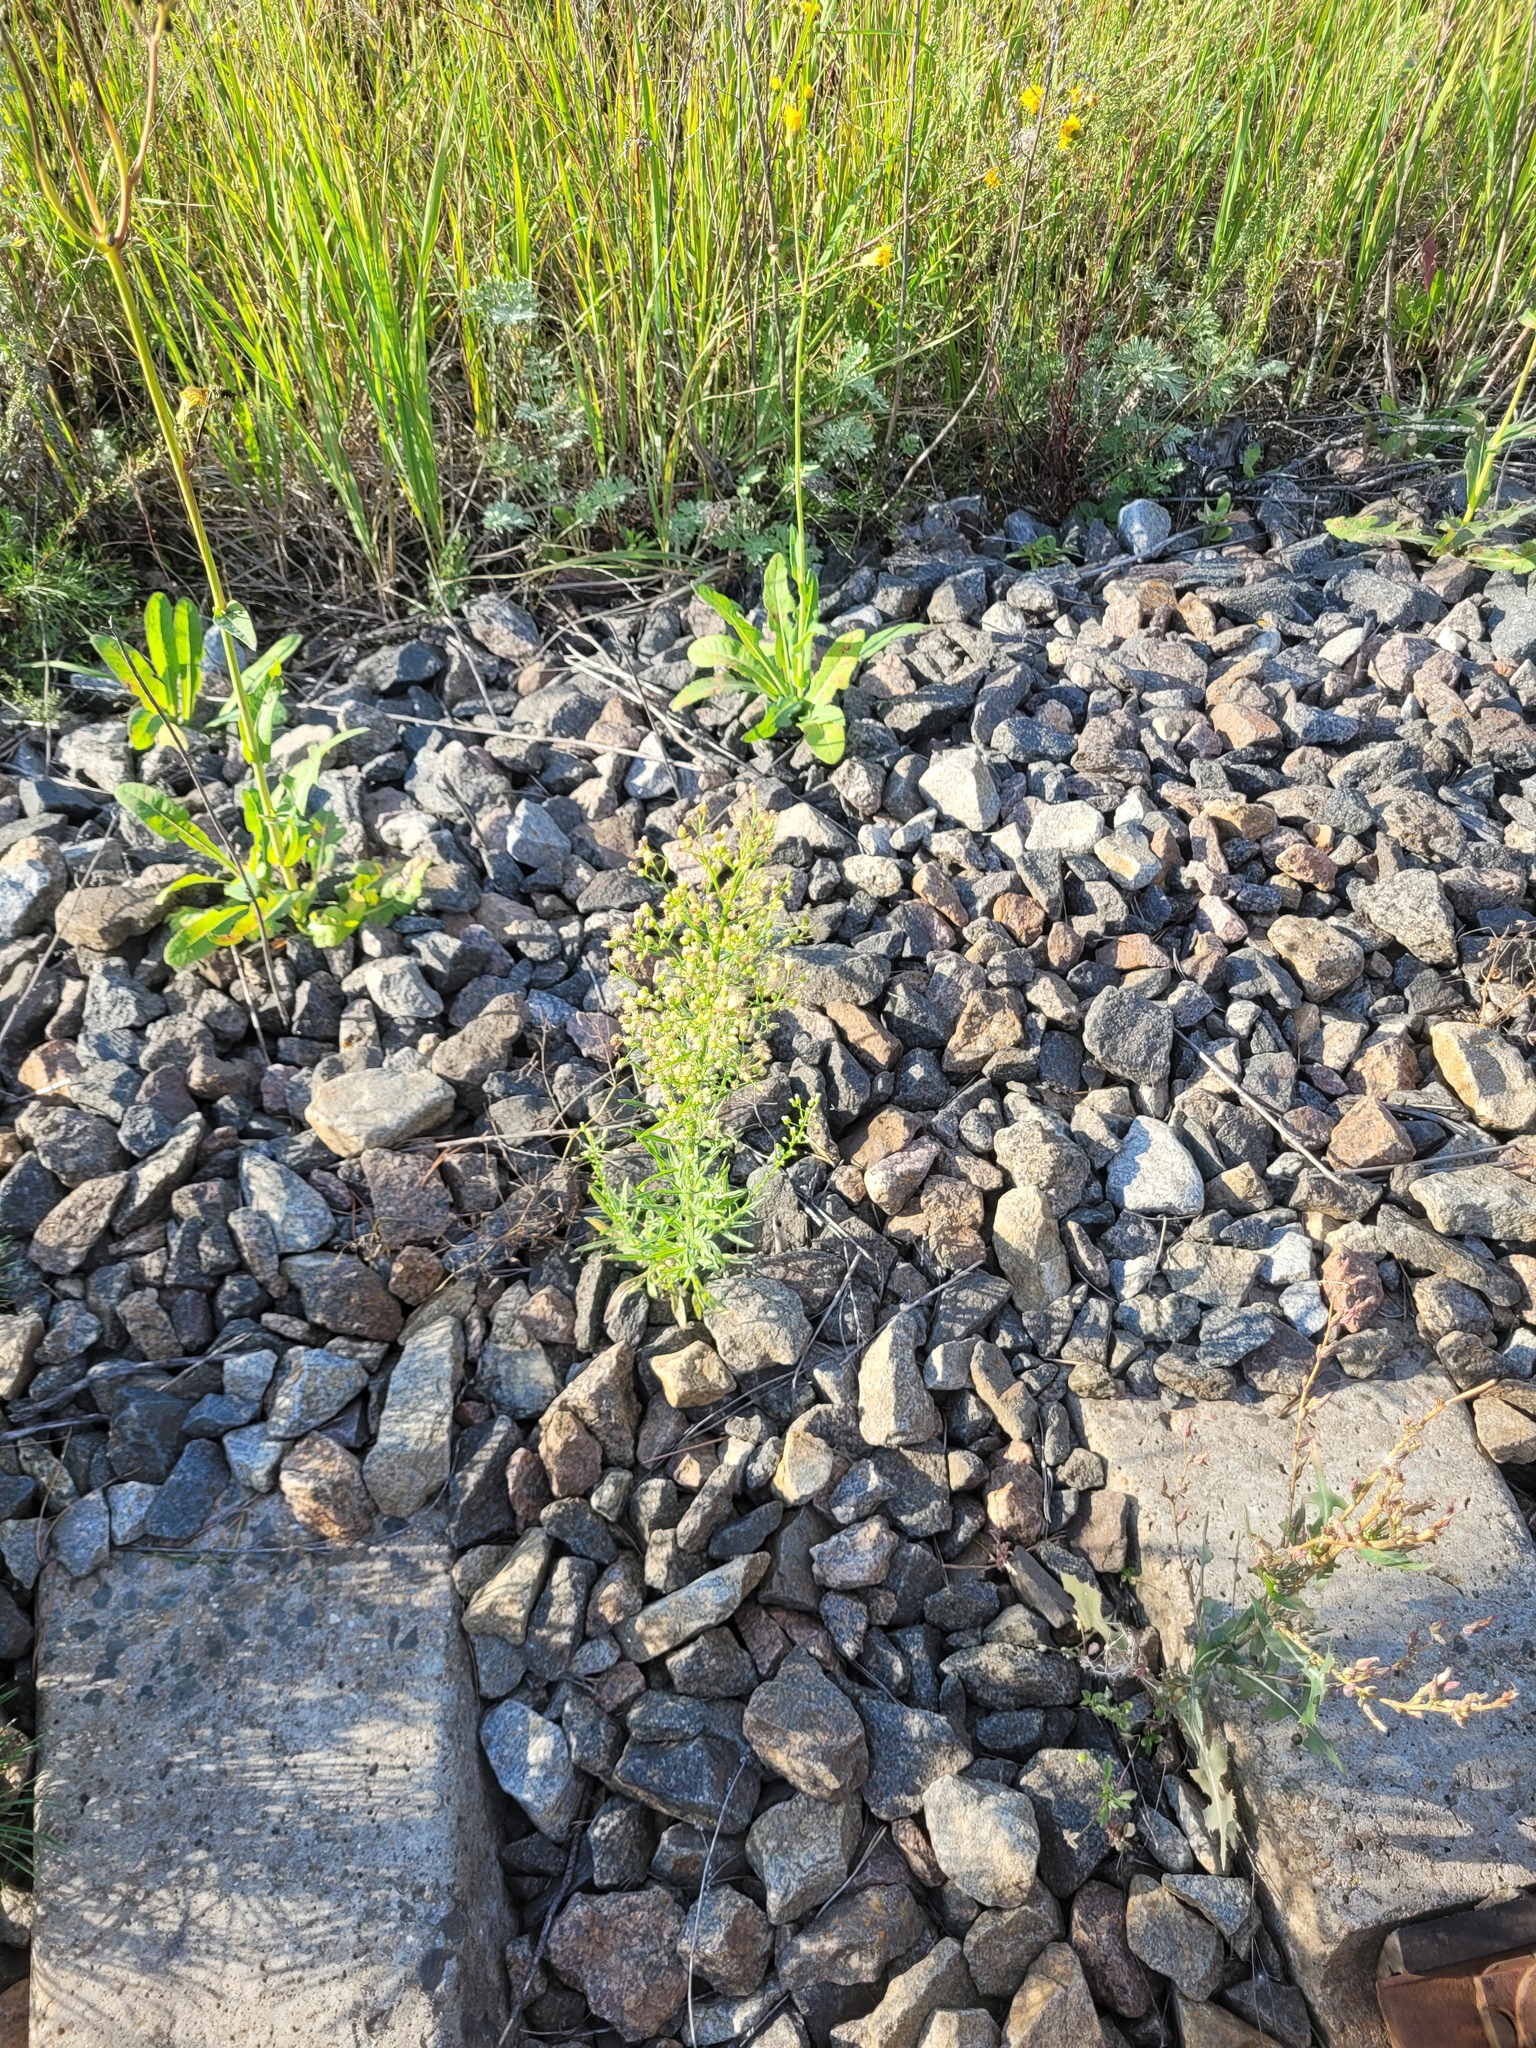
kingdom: Plantae
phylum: Tracheophyta
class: Magnoliopsida
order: Asterales
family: Asteraceae
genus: Erigeron
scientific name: Erigeron canadensis
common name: Canadian fleabane
